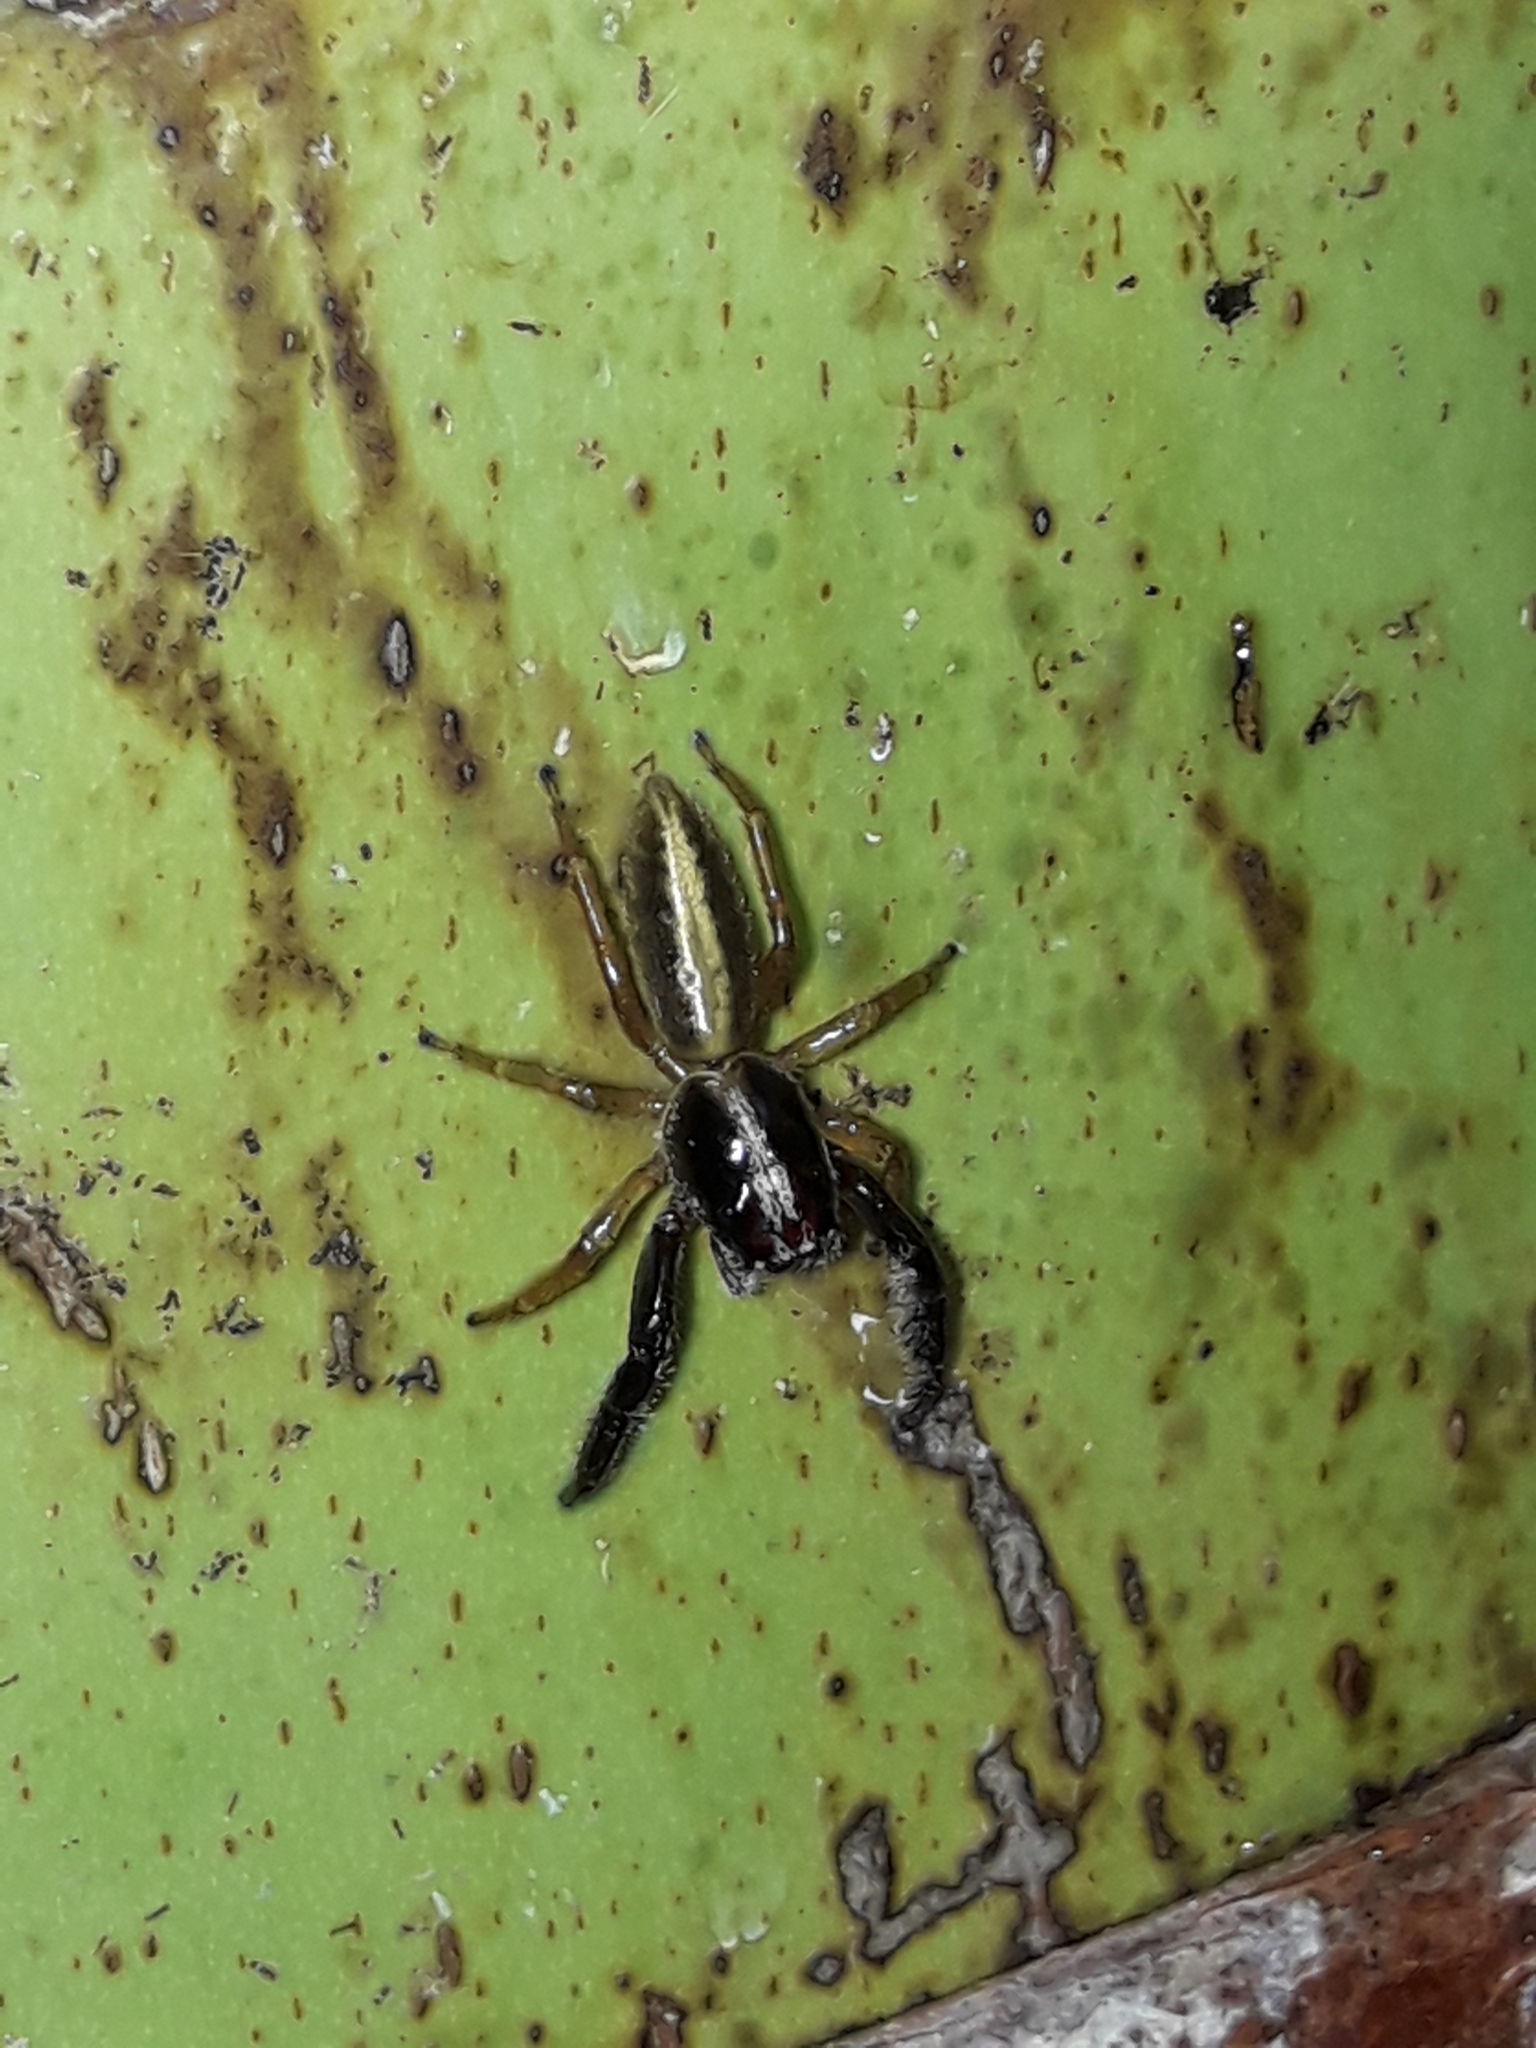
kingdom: Animalia
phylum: Arthropoda
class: Arachnida
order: Araneae
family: Salticidae
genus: Trite
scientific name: Trite planiceps
